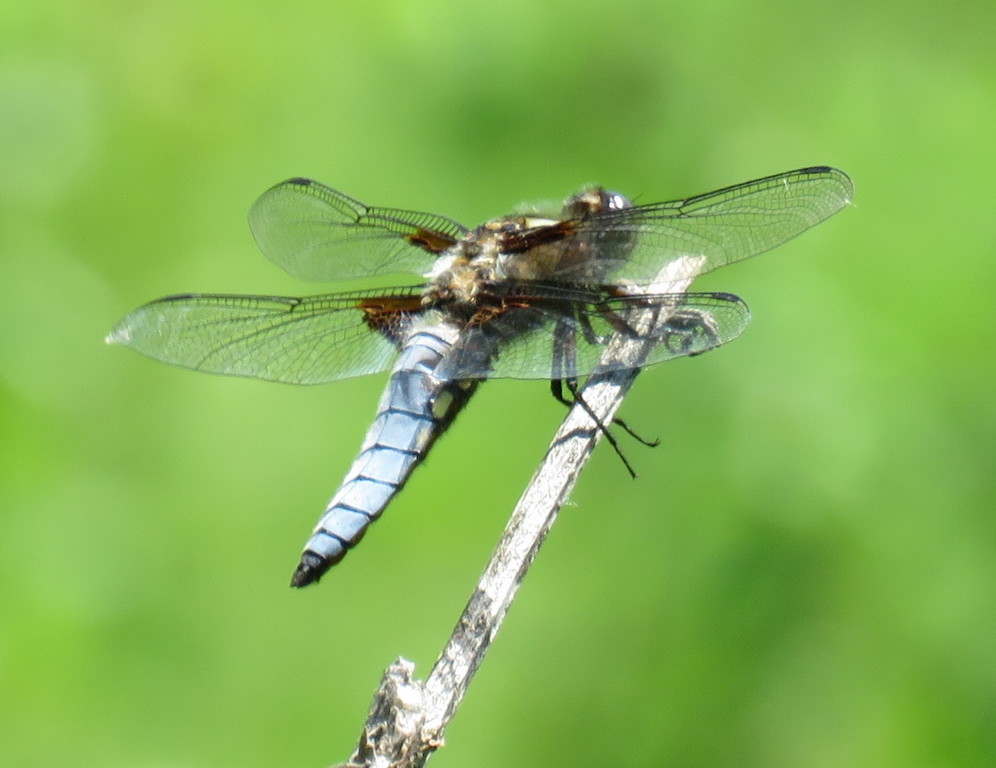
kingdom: Animalia
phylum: Arthropoda
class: Insecta
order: Odonata
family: Libellulidae
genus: Libellula
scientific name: Libellula depressa
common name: Broad-bodied chaser
